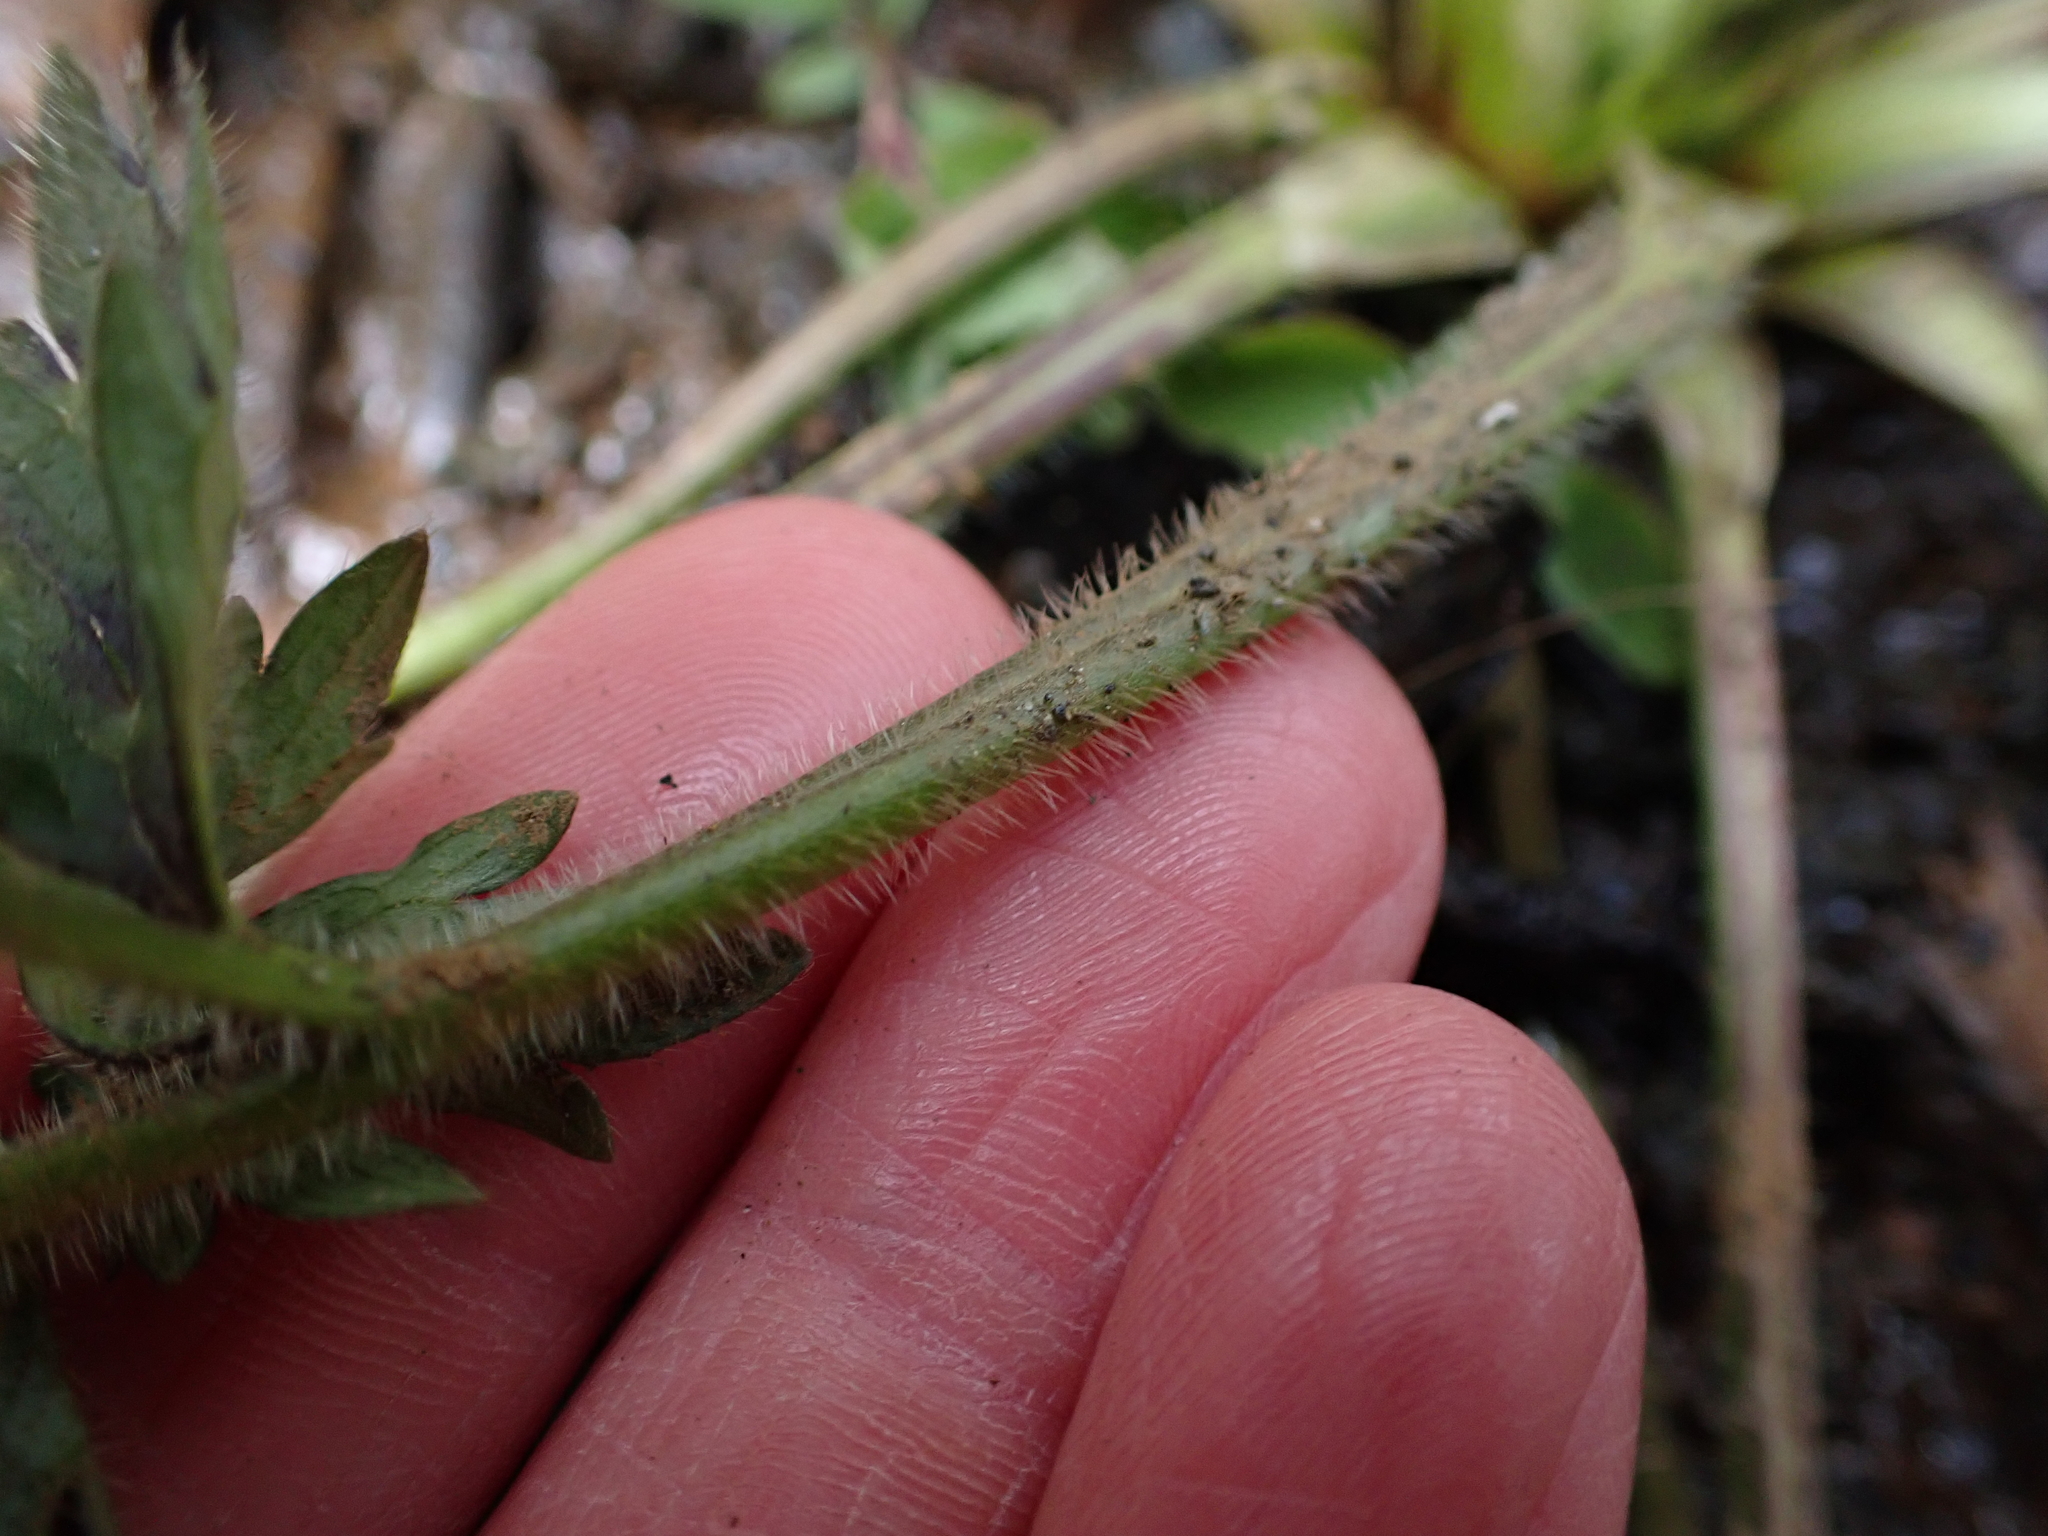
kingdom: Plantae
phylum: Tracheophyta
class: Magnoliopsida
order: Ranunculales
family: Ranunculaceae
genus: Ranunculus
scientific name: Ranunculus repens
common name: Creeping buttercup
